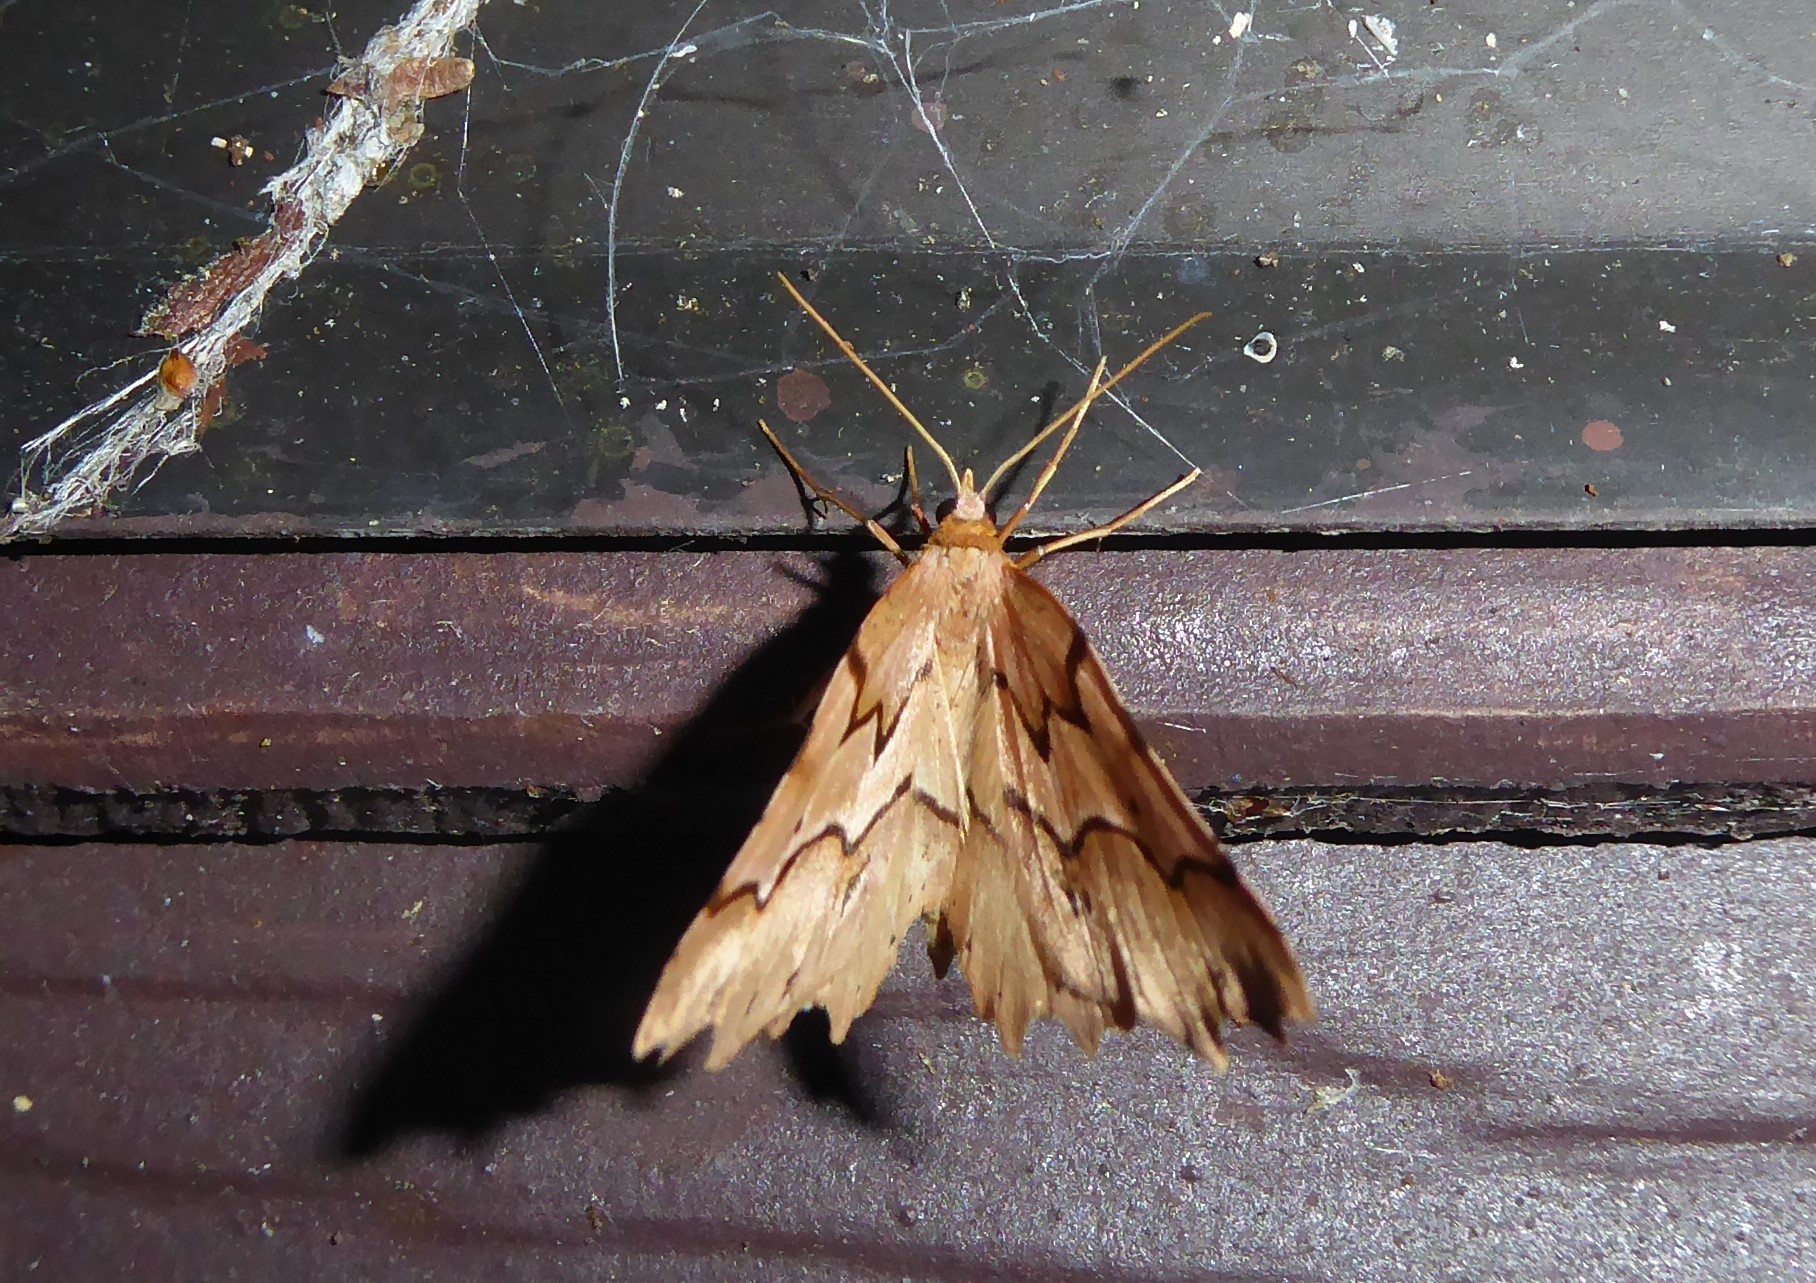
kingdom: Animalia
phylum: Arthropoda
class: Insecta
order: Lepidoptera
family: Geometridae
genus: Ischalis
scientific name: Ischalis fortinata
